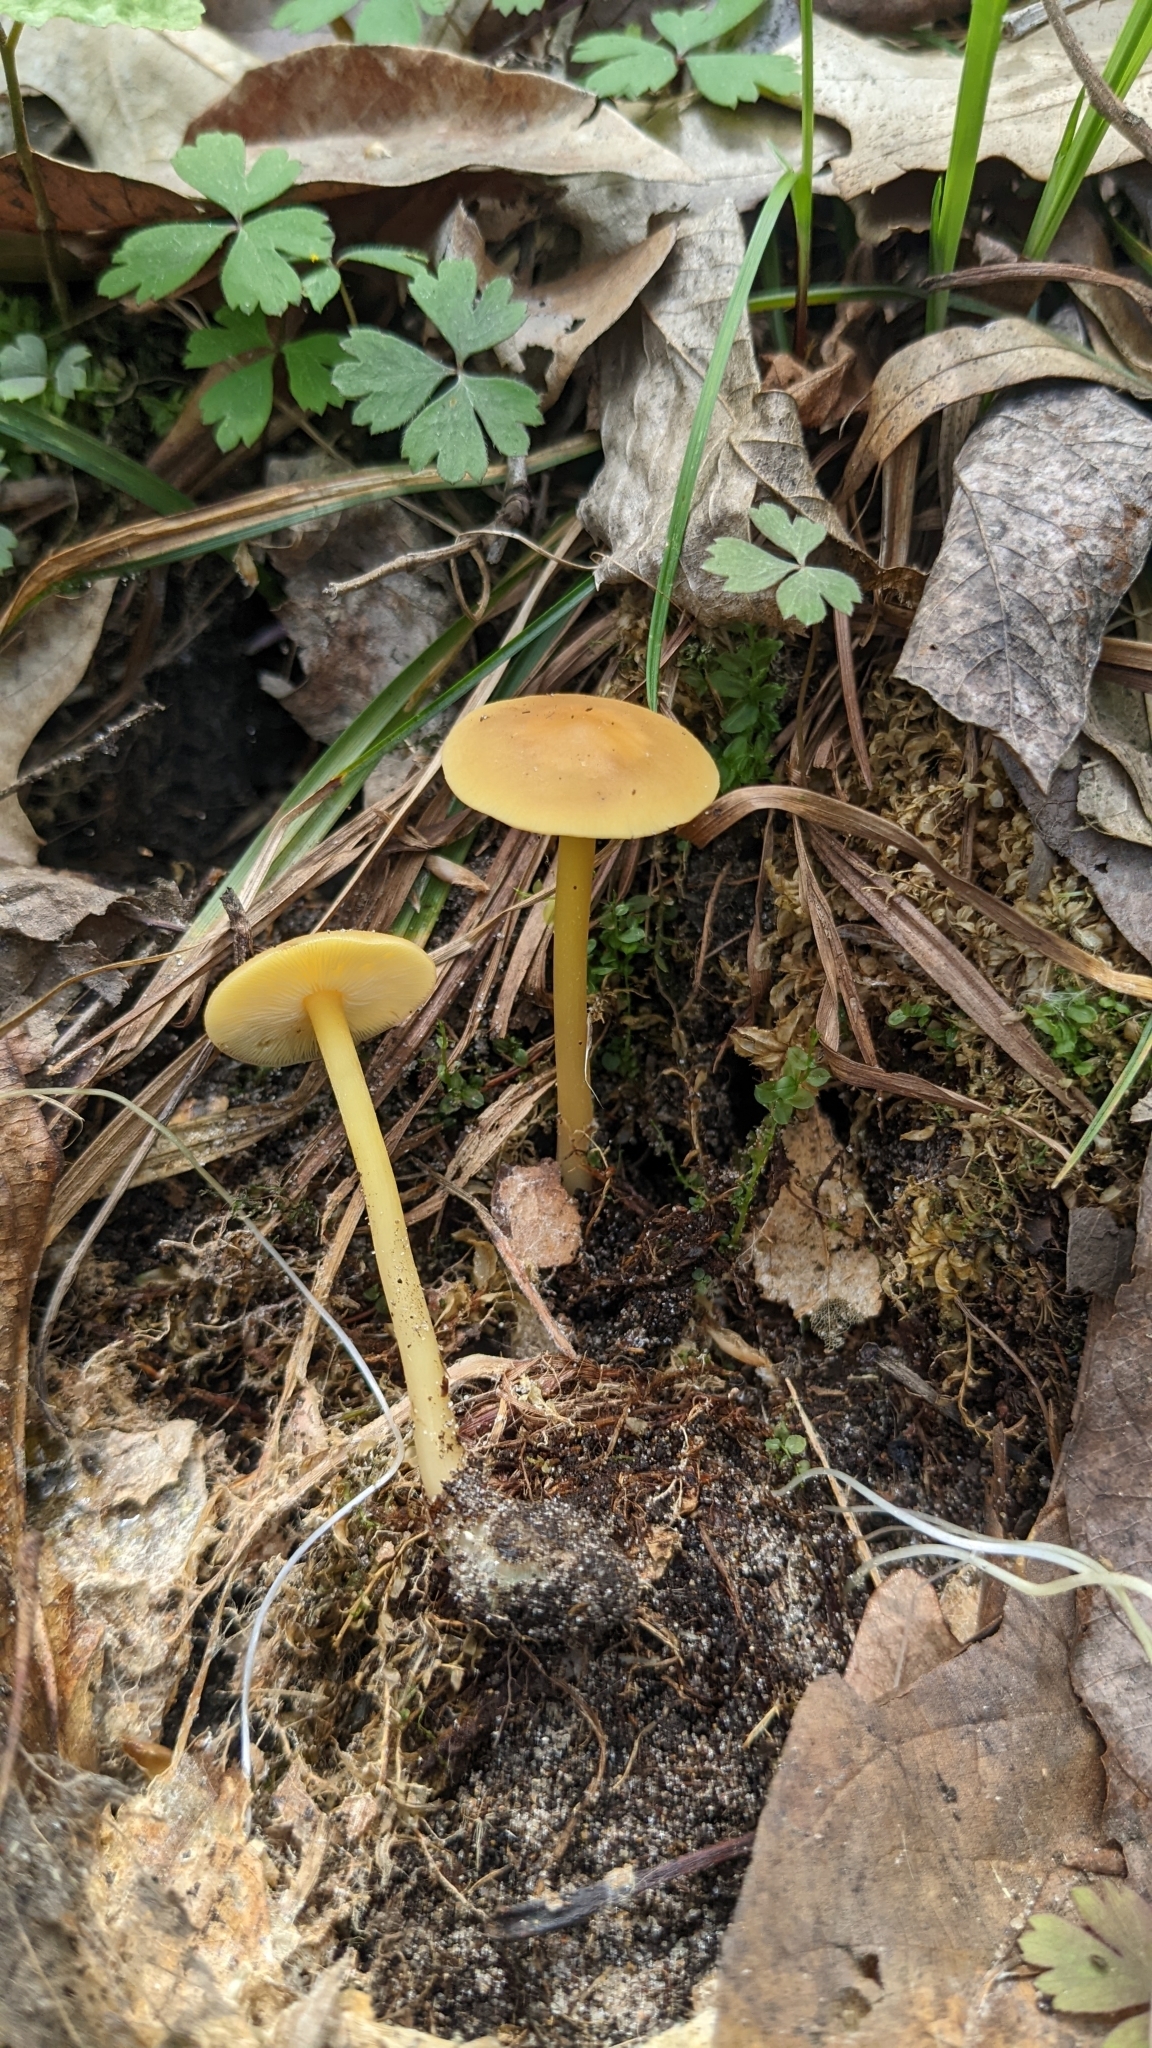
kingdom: Fungi
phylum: Basidiomycota
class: Agaricomycetes
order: Agaricales
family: Omphalotaceae
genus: Gymnopus
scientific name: Gymnopus subsulphureus
